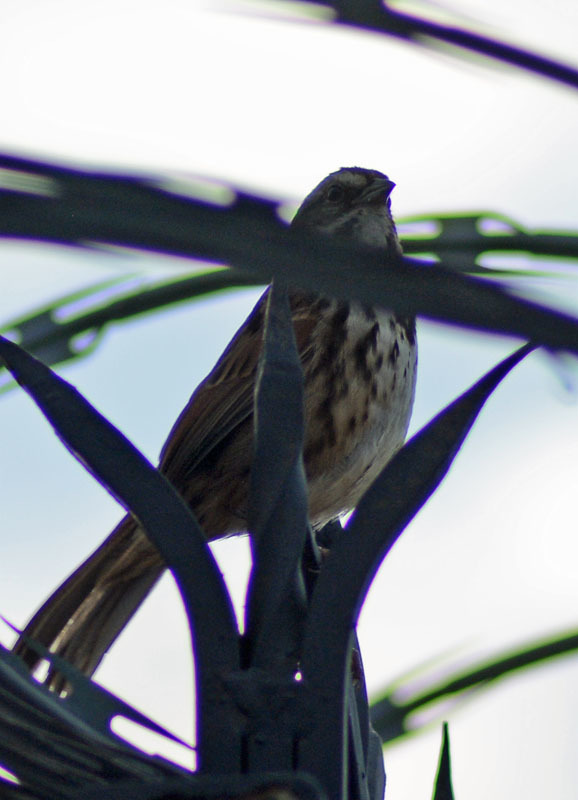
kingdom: Animalia
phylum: Chordata
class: Aves
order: Passeriformes
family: Passerellidae
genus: Melospiza
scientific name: Melospiza melodia
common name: Song sparrow
